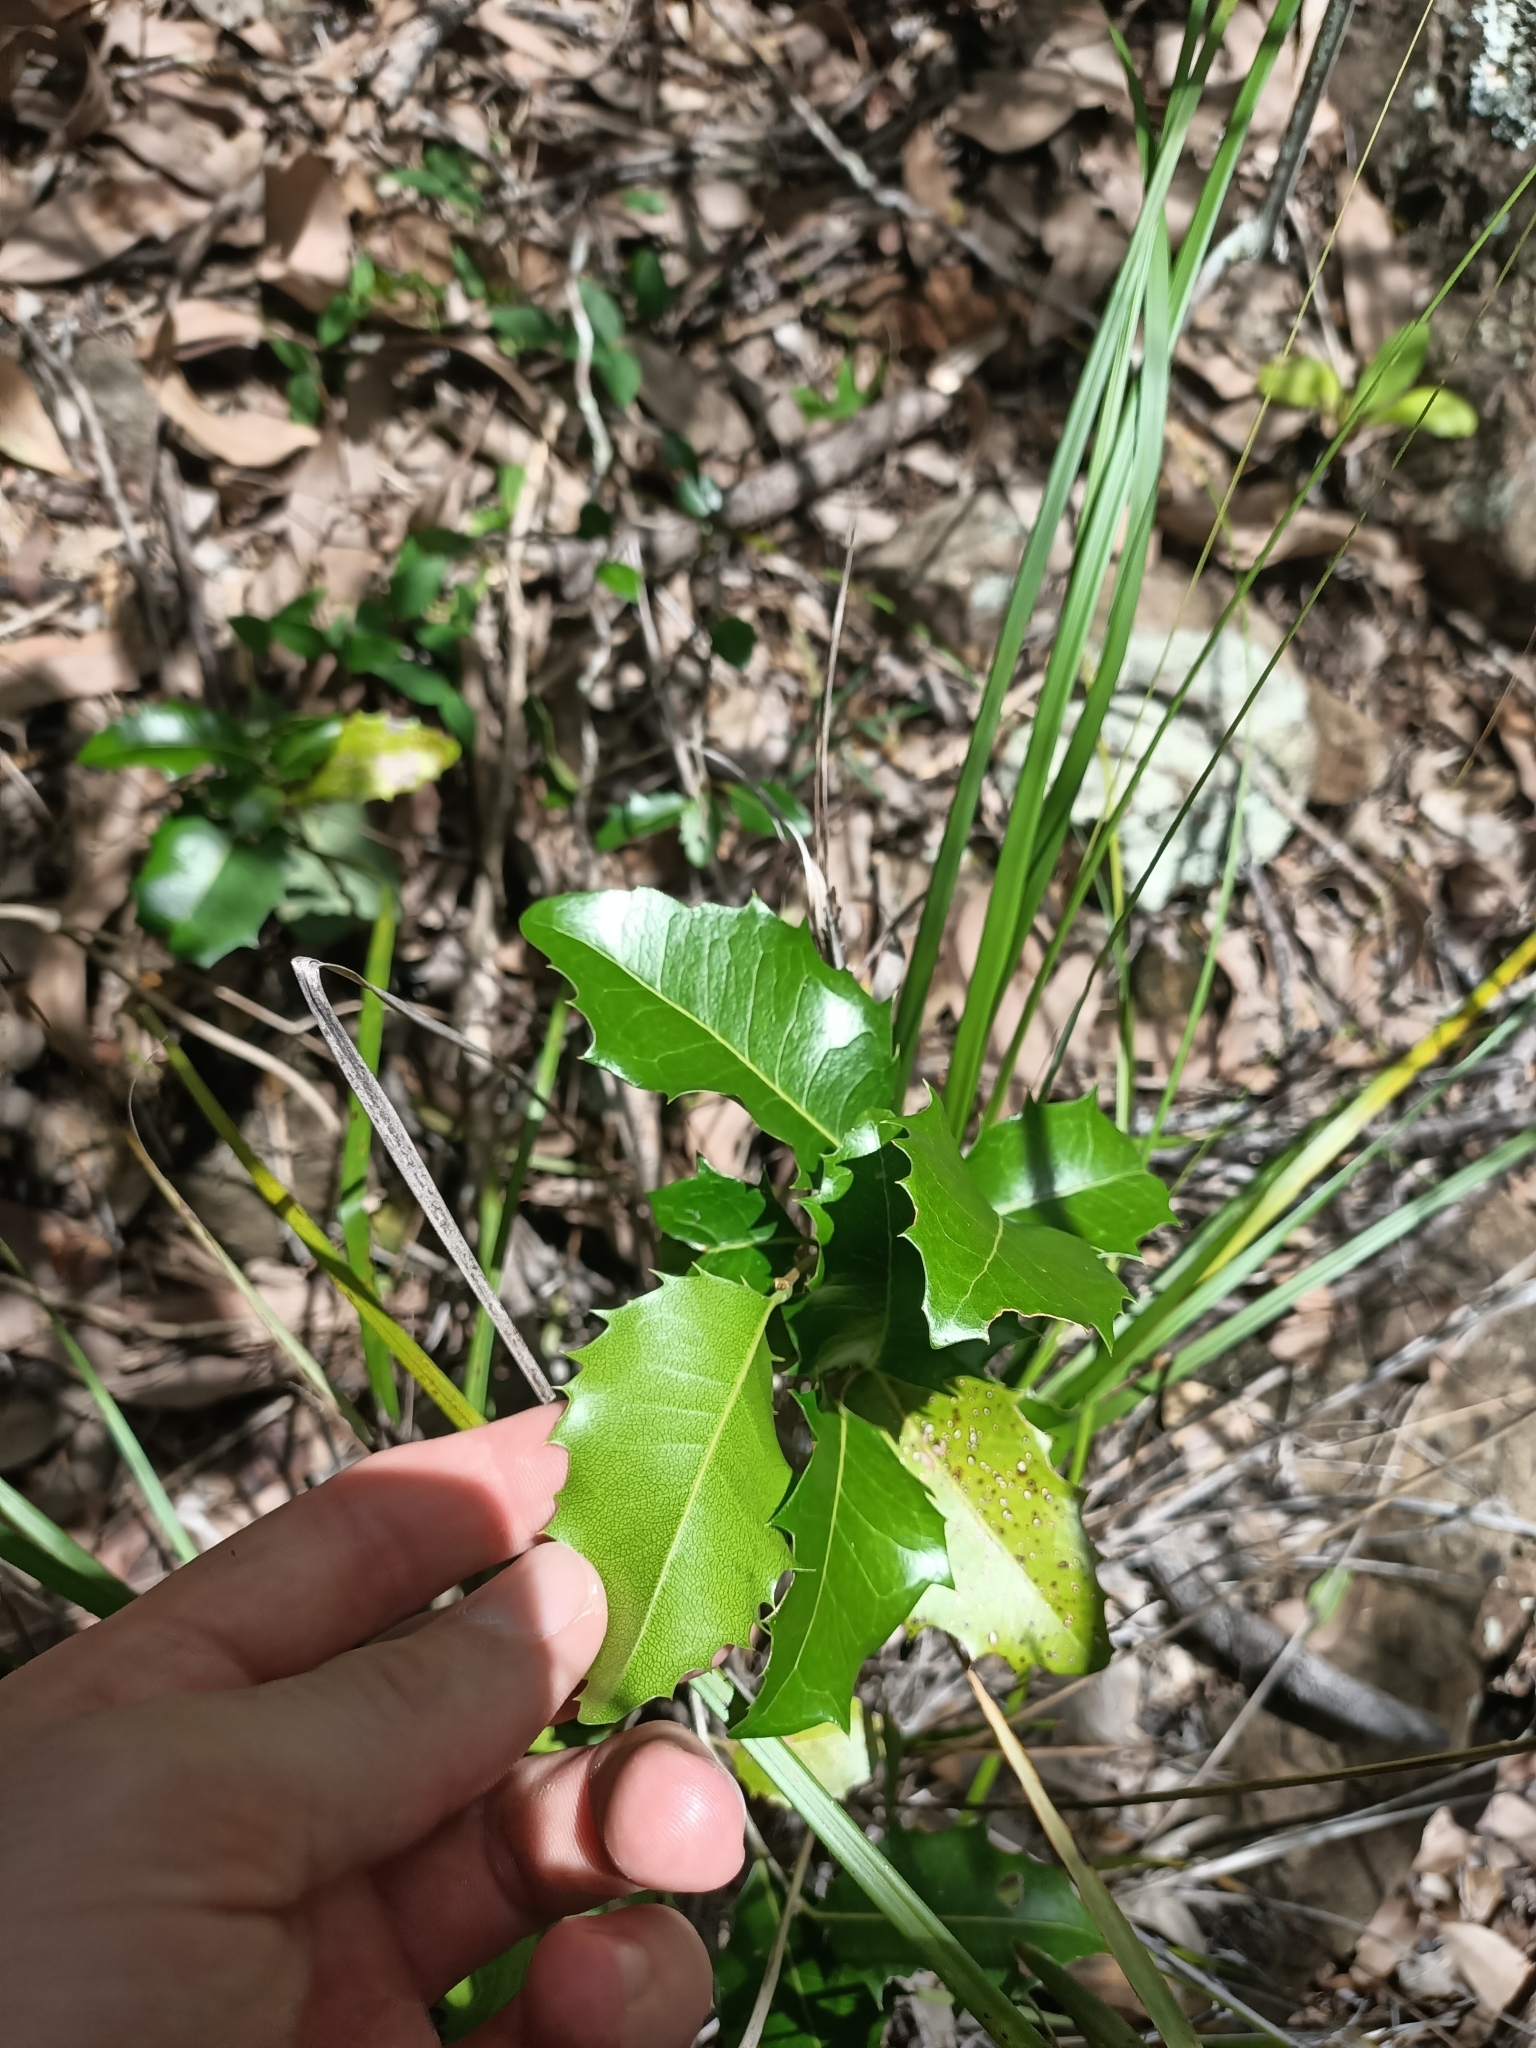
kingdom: Plantae
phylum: Tracheophyta
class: Magnoliopsida
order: Malpighiales
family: Putranjivaceae
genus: Drypetes
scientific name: Drypetes deplanchei
